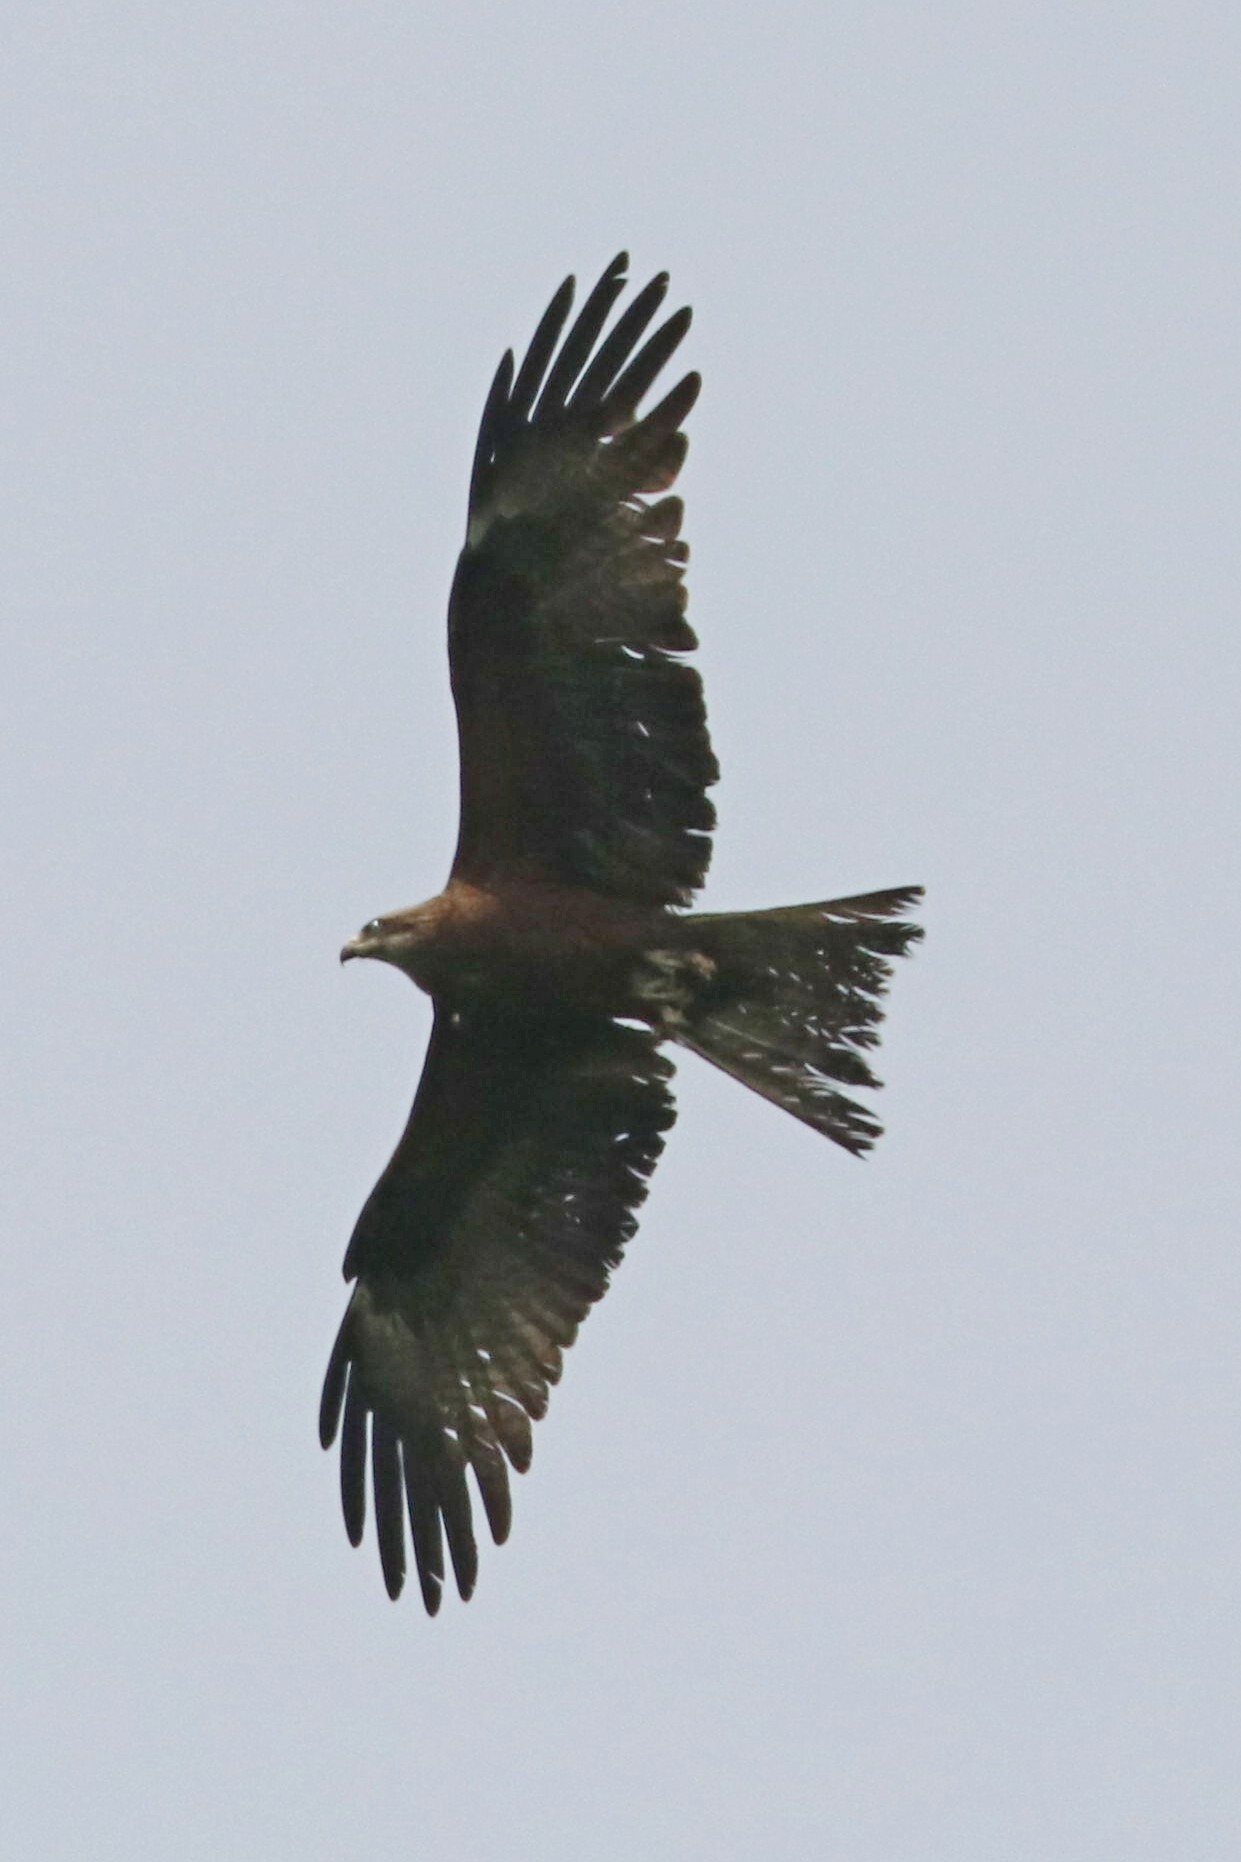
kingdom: Animalia
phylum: Chordata
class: Aves
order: Accipitriformes
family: Accipitridae
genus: Milvus
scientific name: Milvus migrans
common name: Black kite
